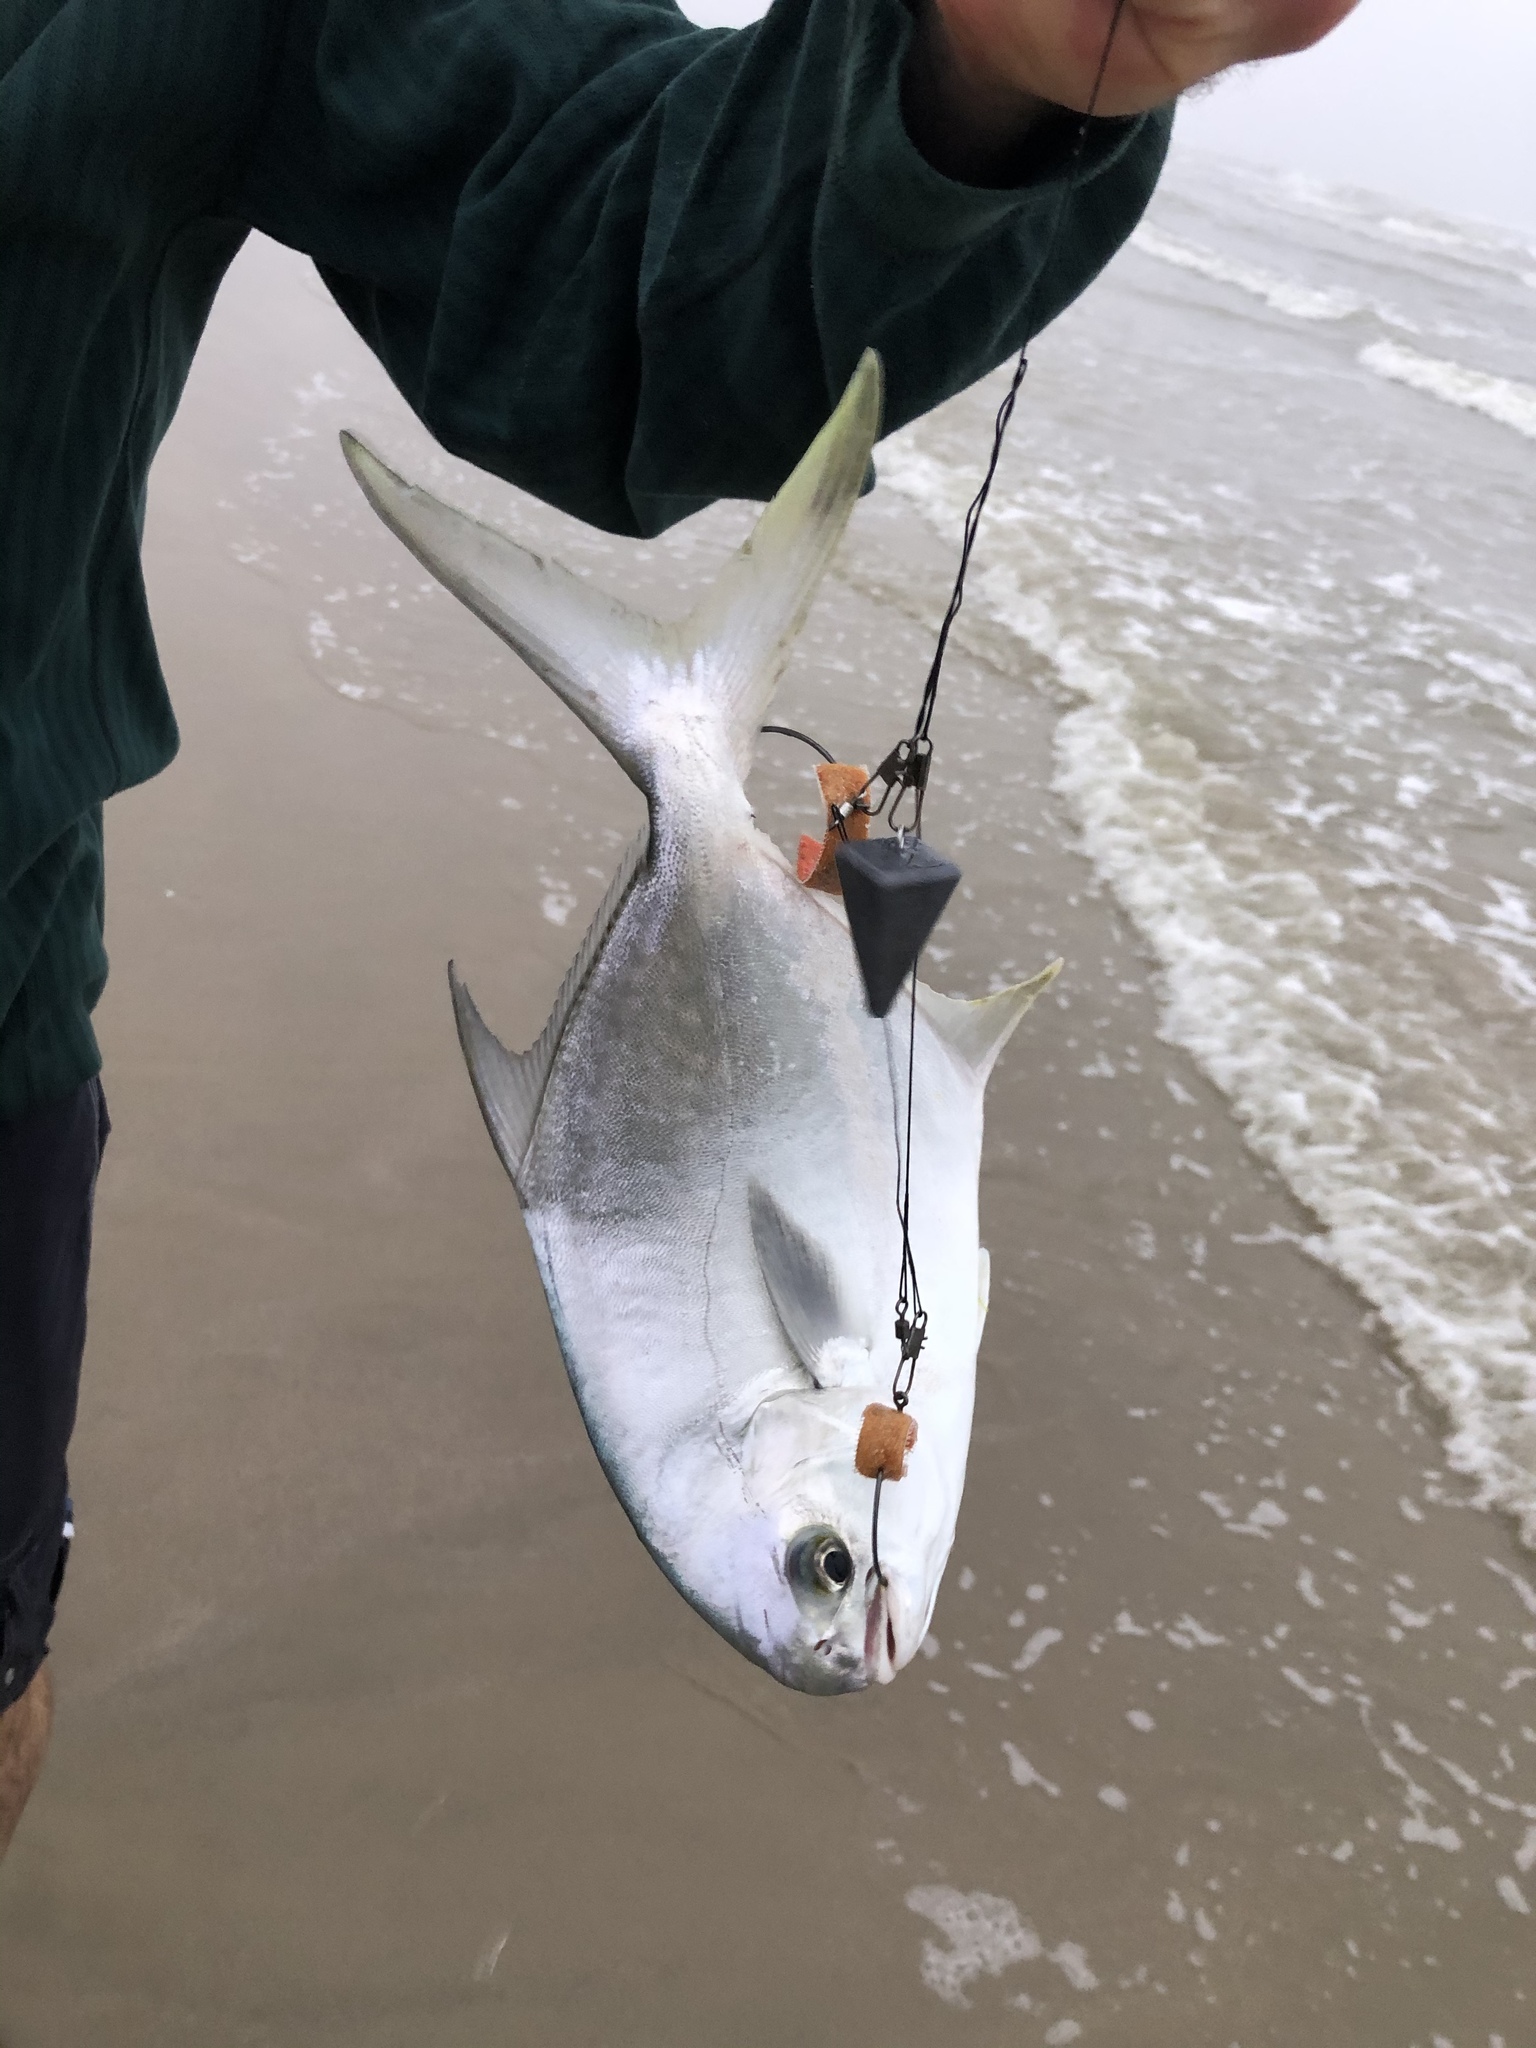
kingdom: Animalia
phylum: Chordata
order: Perciformes
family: Carangidae
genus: Trachinotus
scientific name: Trachinotus carolinus
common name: Florida pompano
